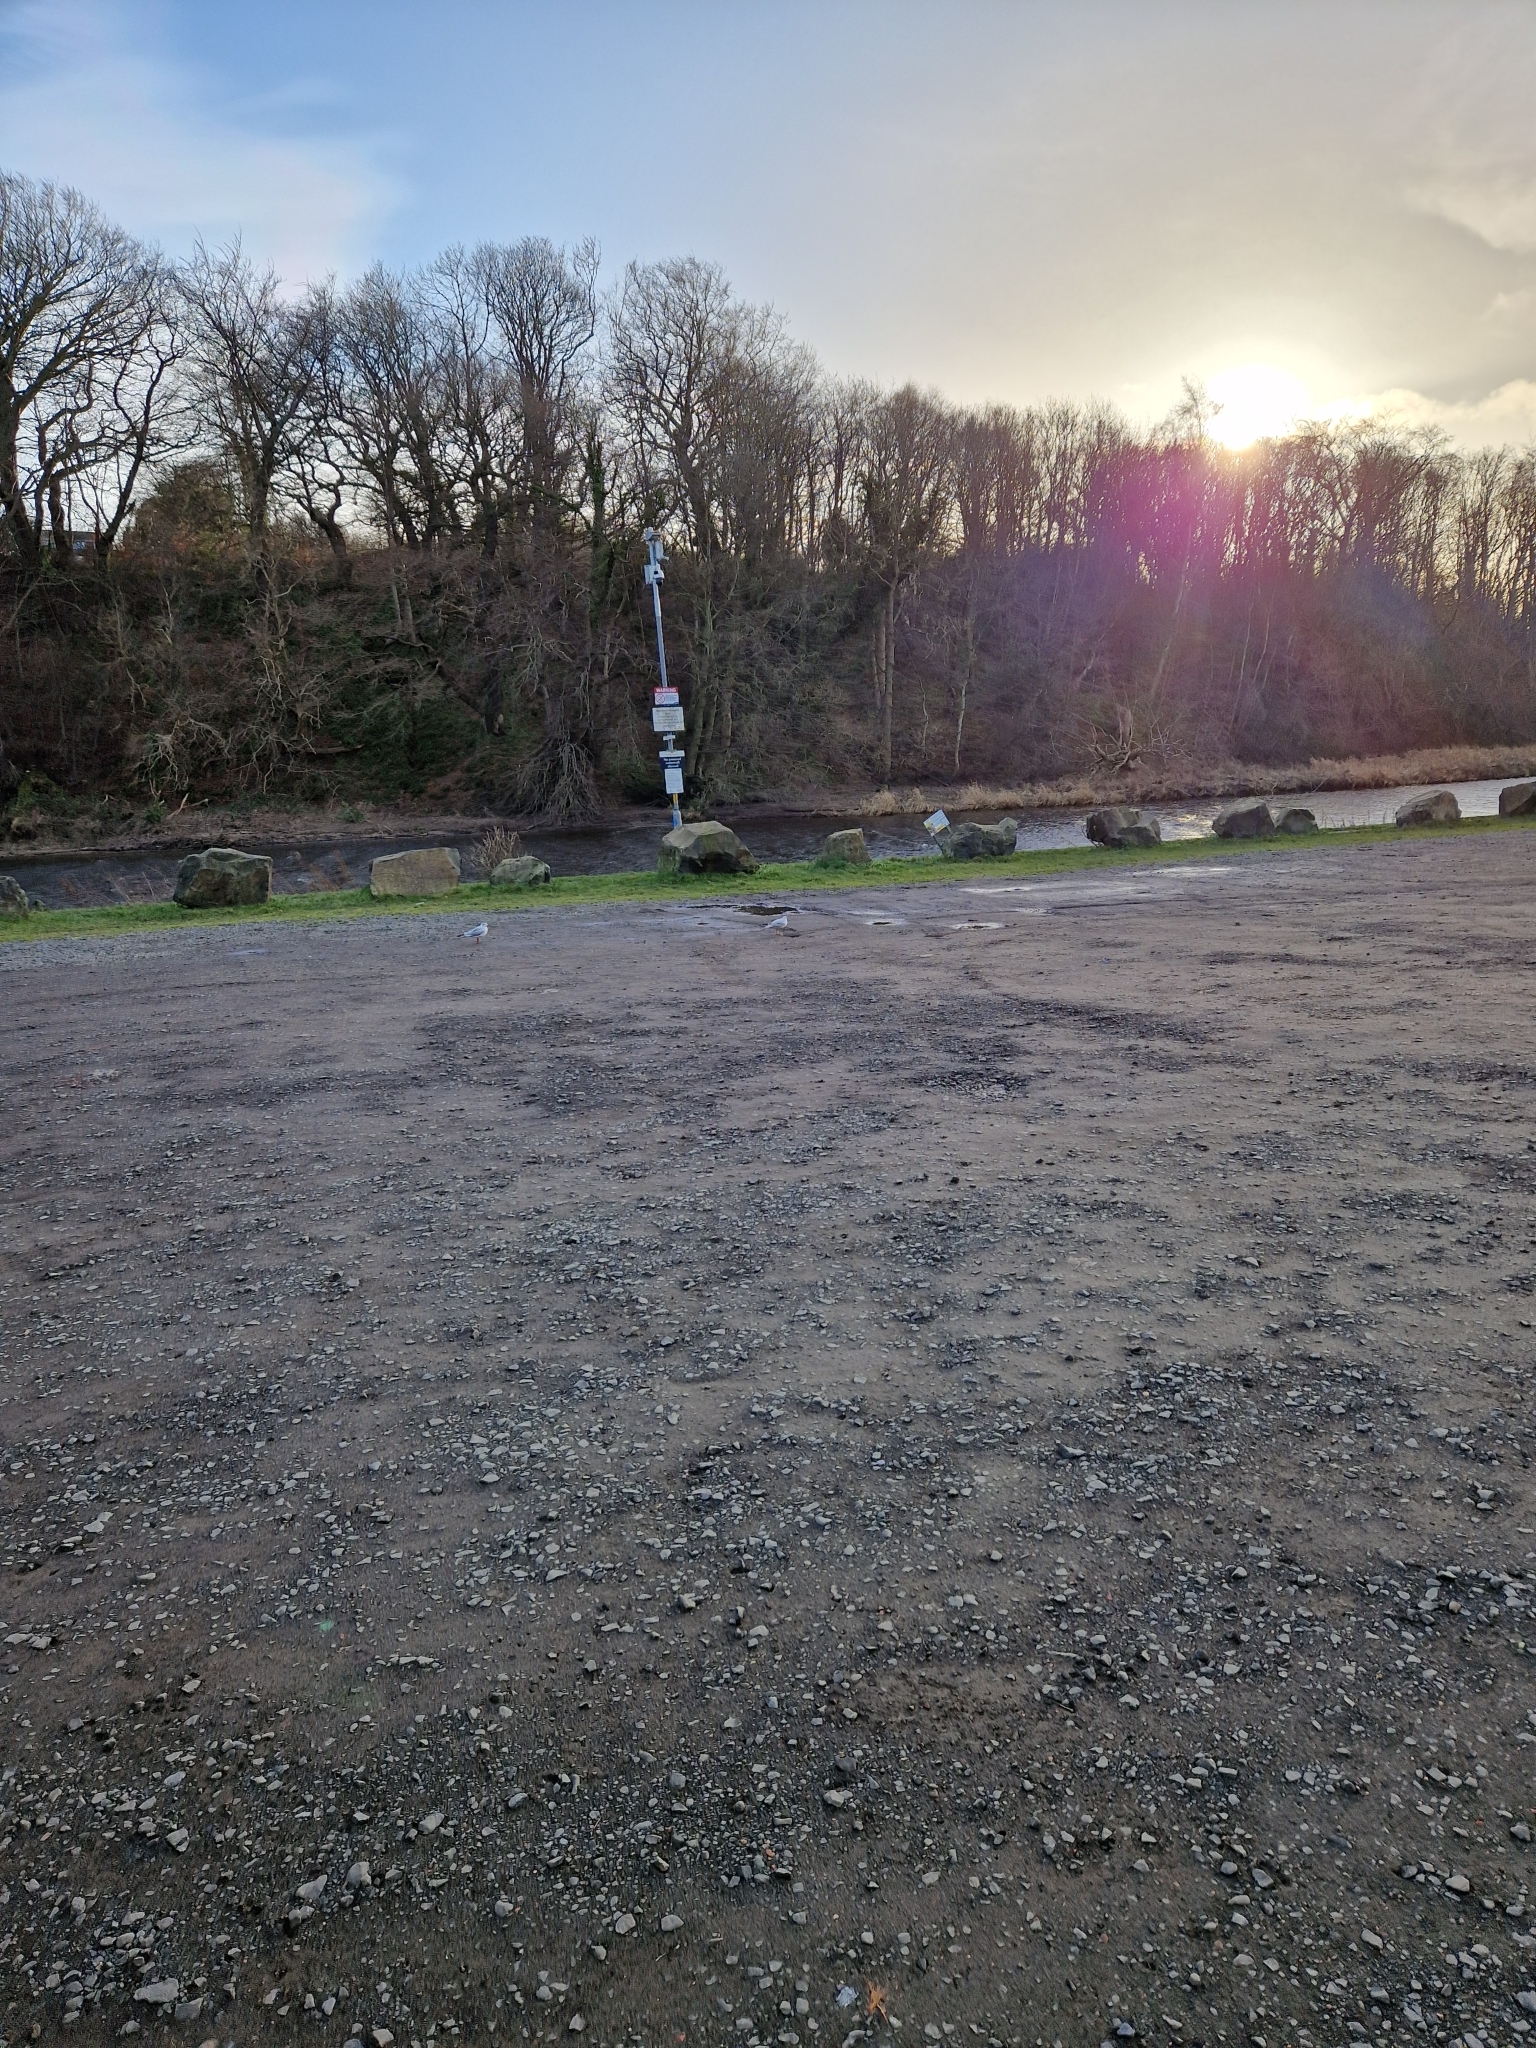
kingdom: Animalia
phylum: Chordata
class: Aves
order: Charadriiformes
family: Laridae
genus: Chroicocephalus
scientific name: Chroicocephalus ridibundus
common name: Black-headed gull
